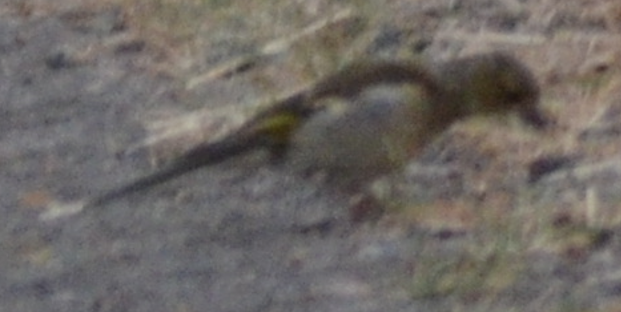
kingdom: Animalia
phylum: Chordata
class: Aves
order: Passeriformes
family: Fringillidae
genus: Fringilla
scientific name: Fringilla coelebs
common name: Common chaffinch
